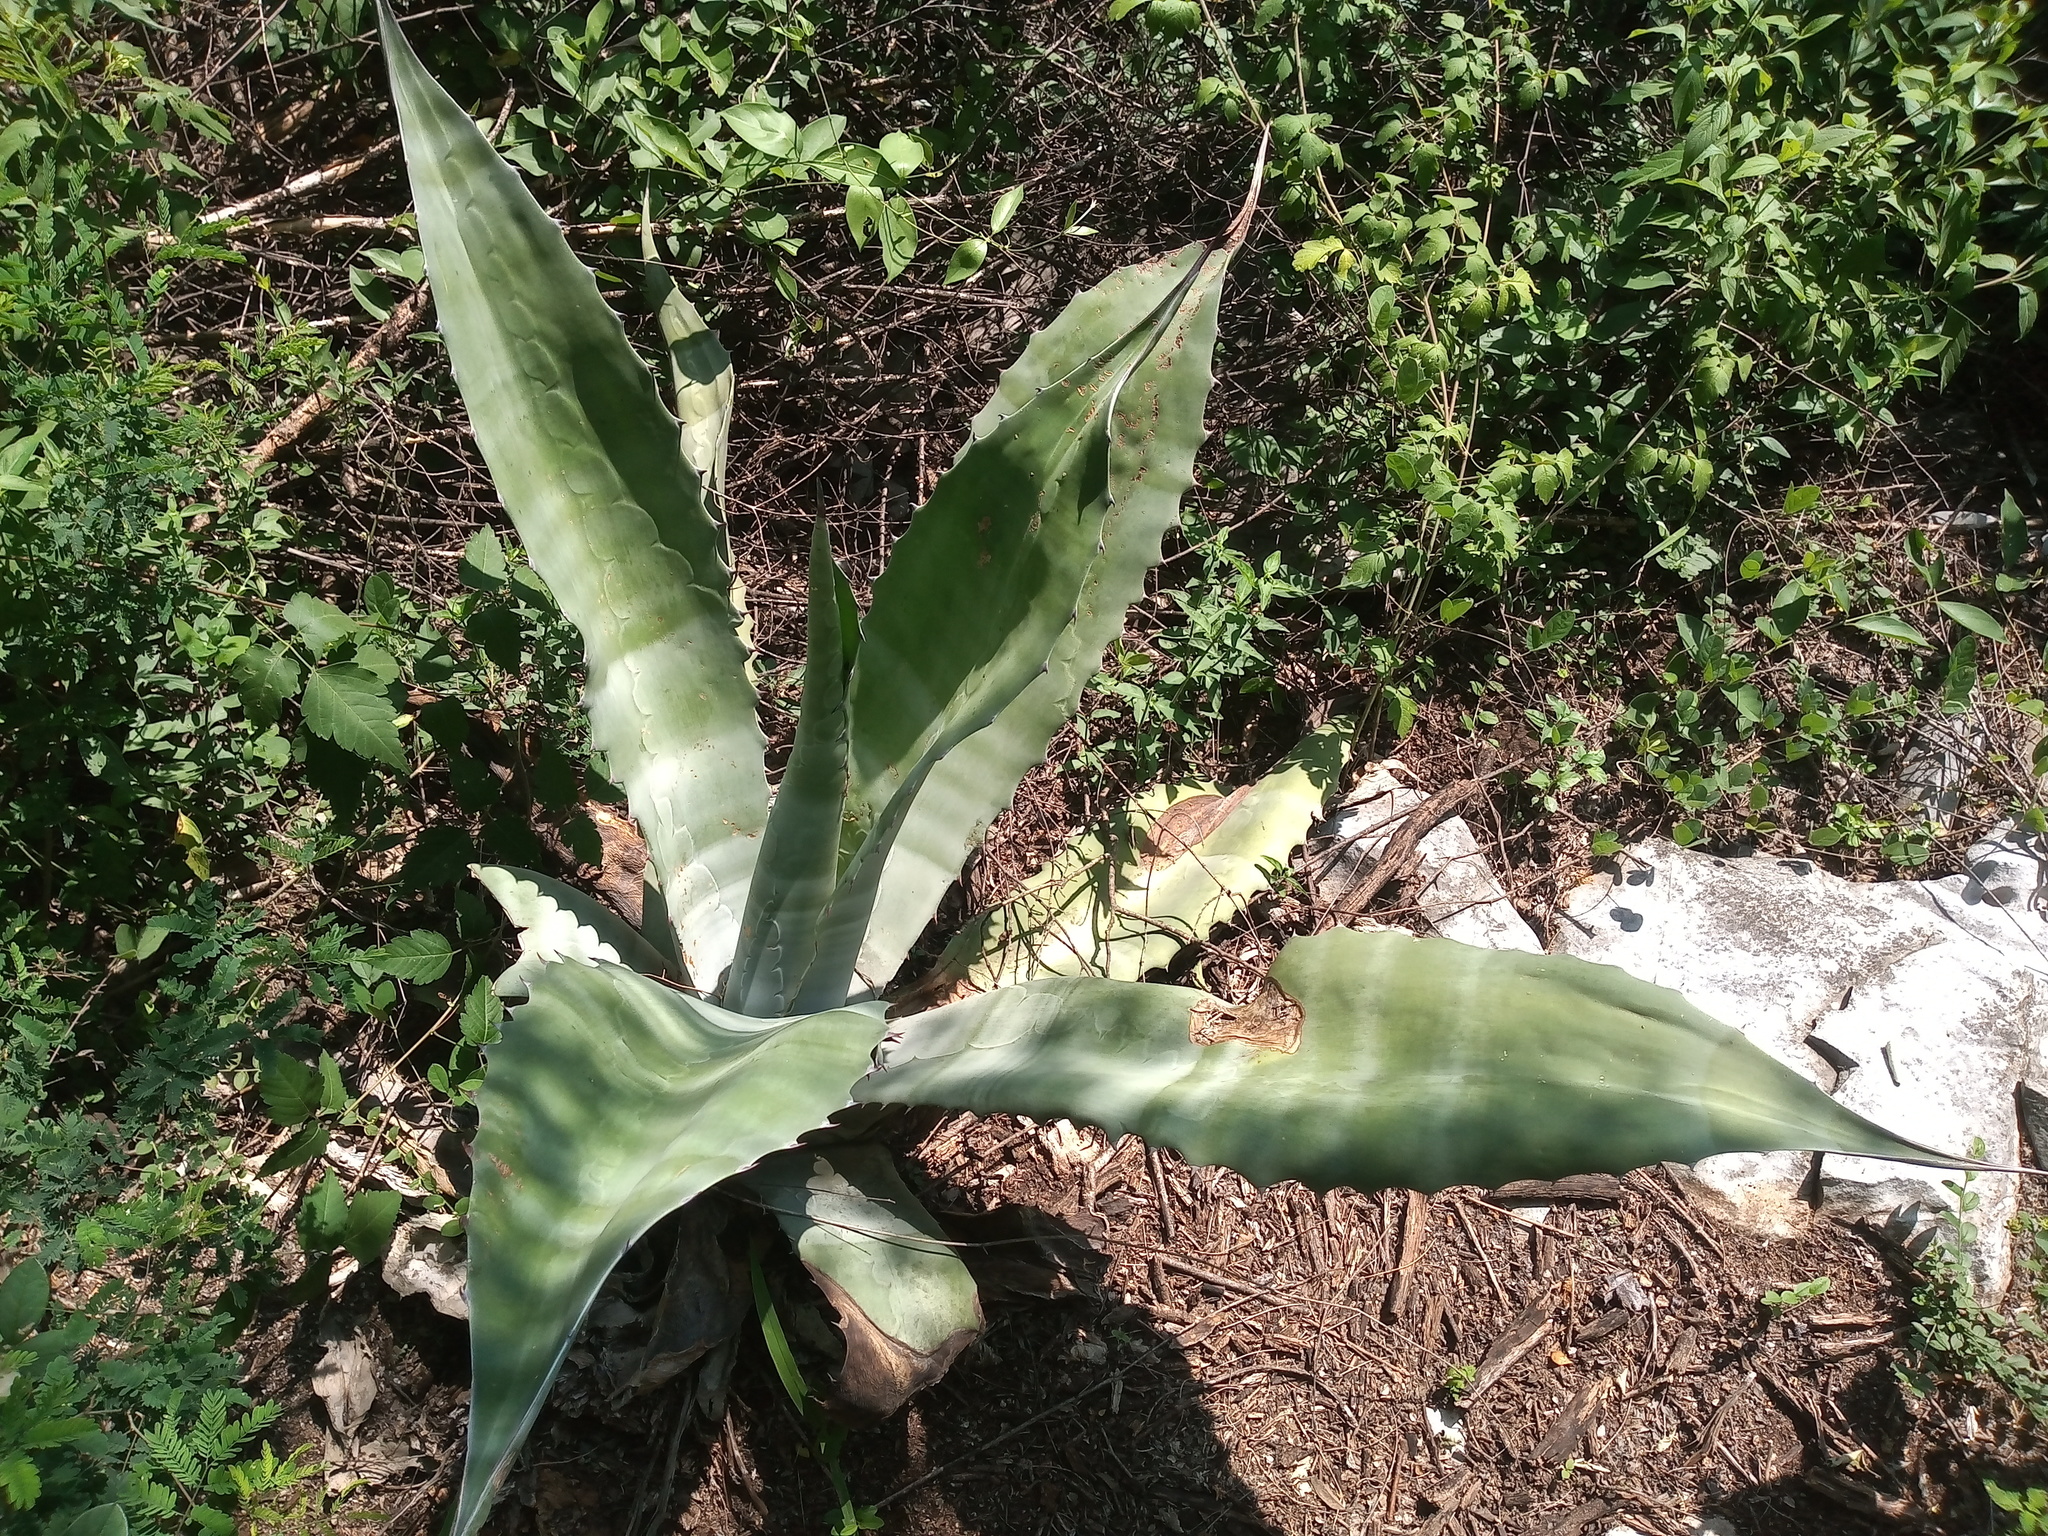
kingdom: Plantae
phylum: Tracheophyta
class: Liliopsida
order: Asparagales
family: Asparagaceae
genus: Agave
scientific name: Agave salmiana
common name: Pulque agave
